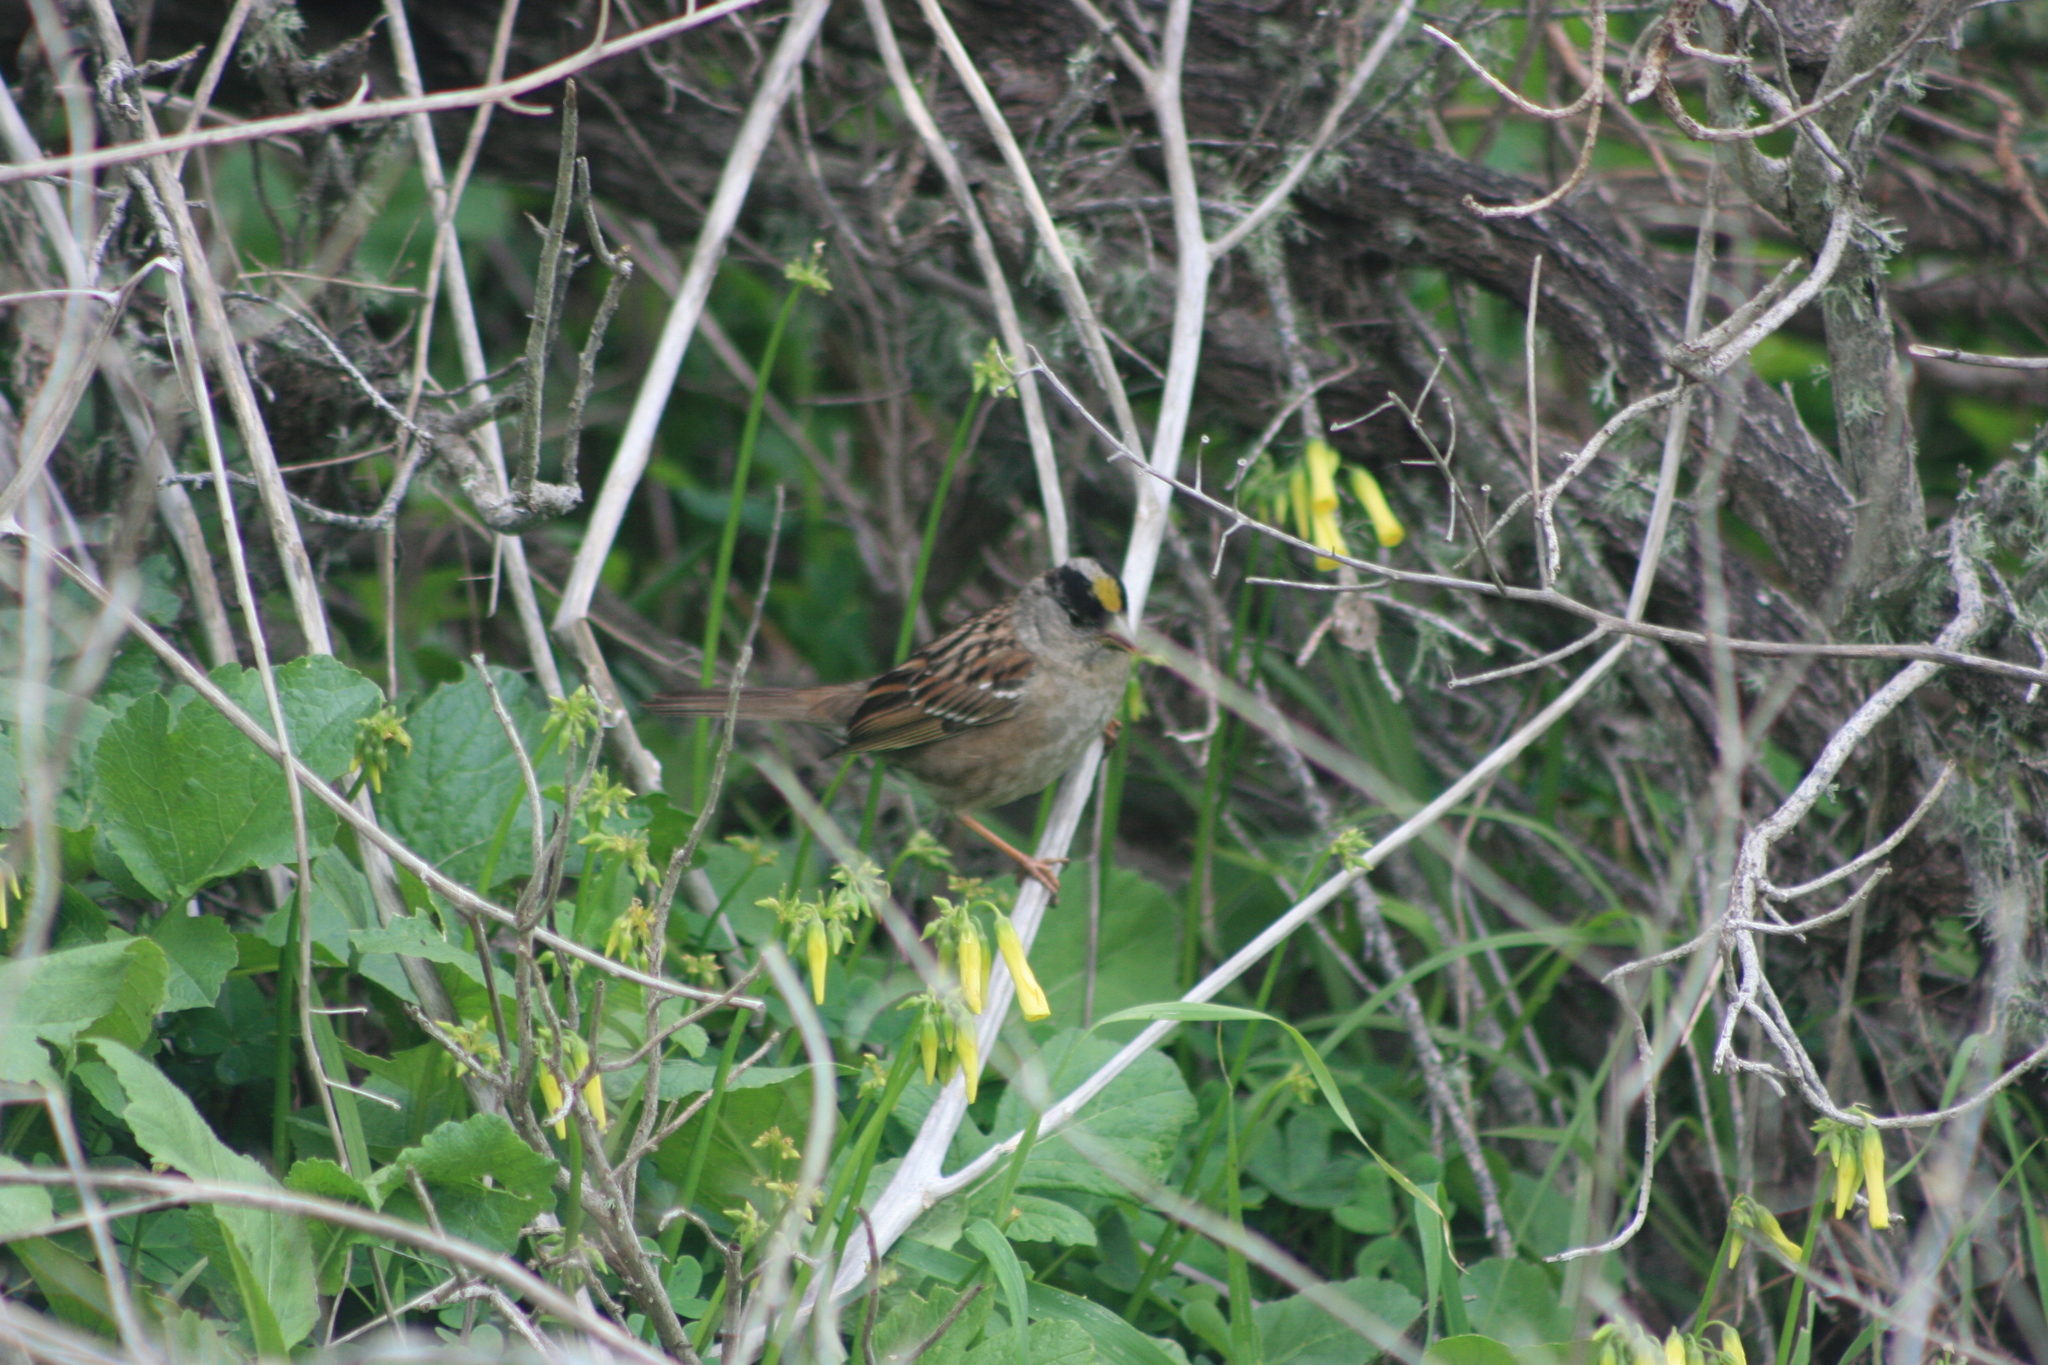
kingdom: Animalia
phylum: Chordata
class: Aves
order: Passeriformes
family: Passerellidae
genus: Zonotrichia
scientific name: Zonotrichia atricapilla
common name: Golden-crowned sparrow
